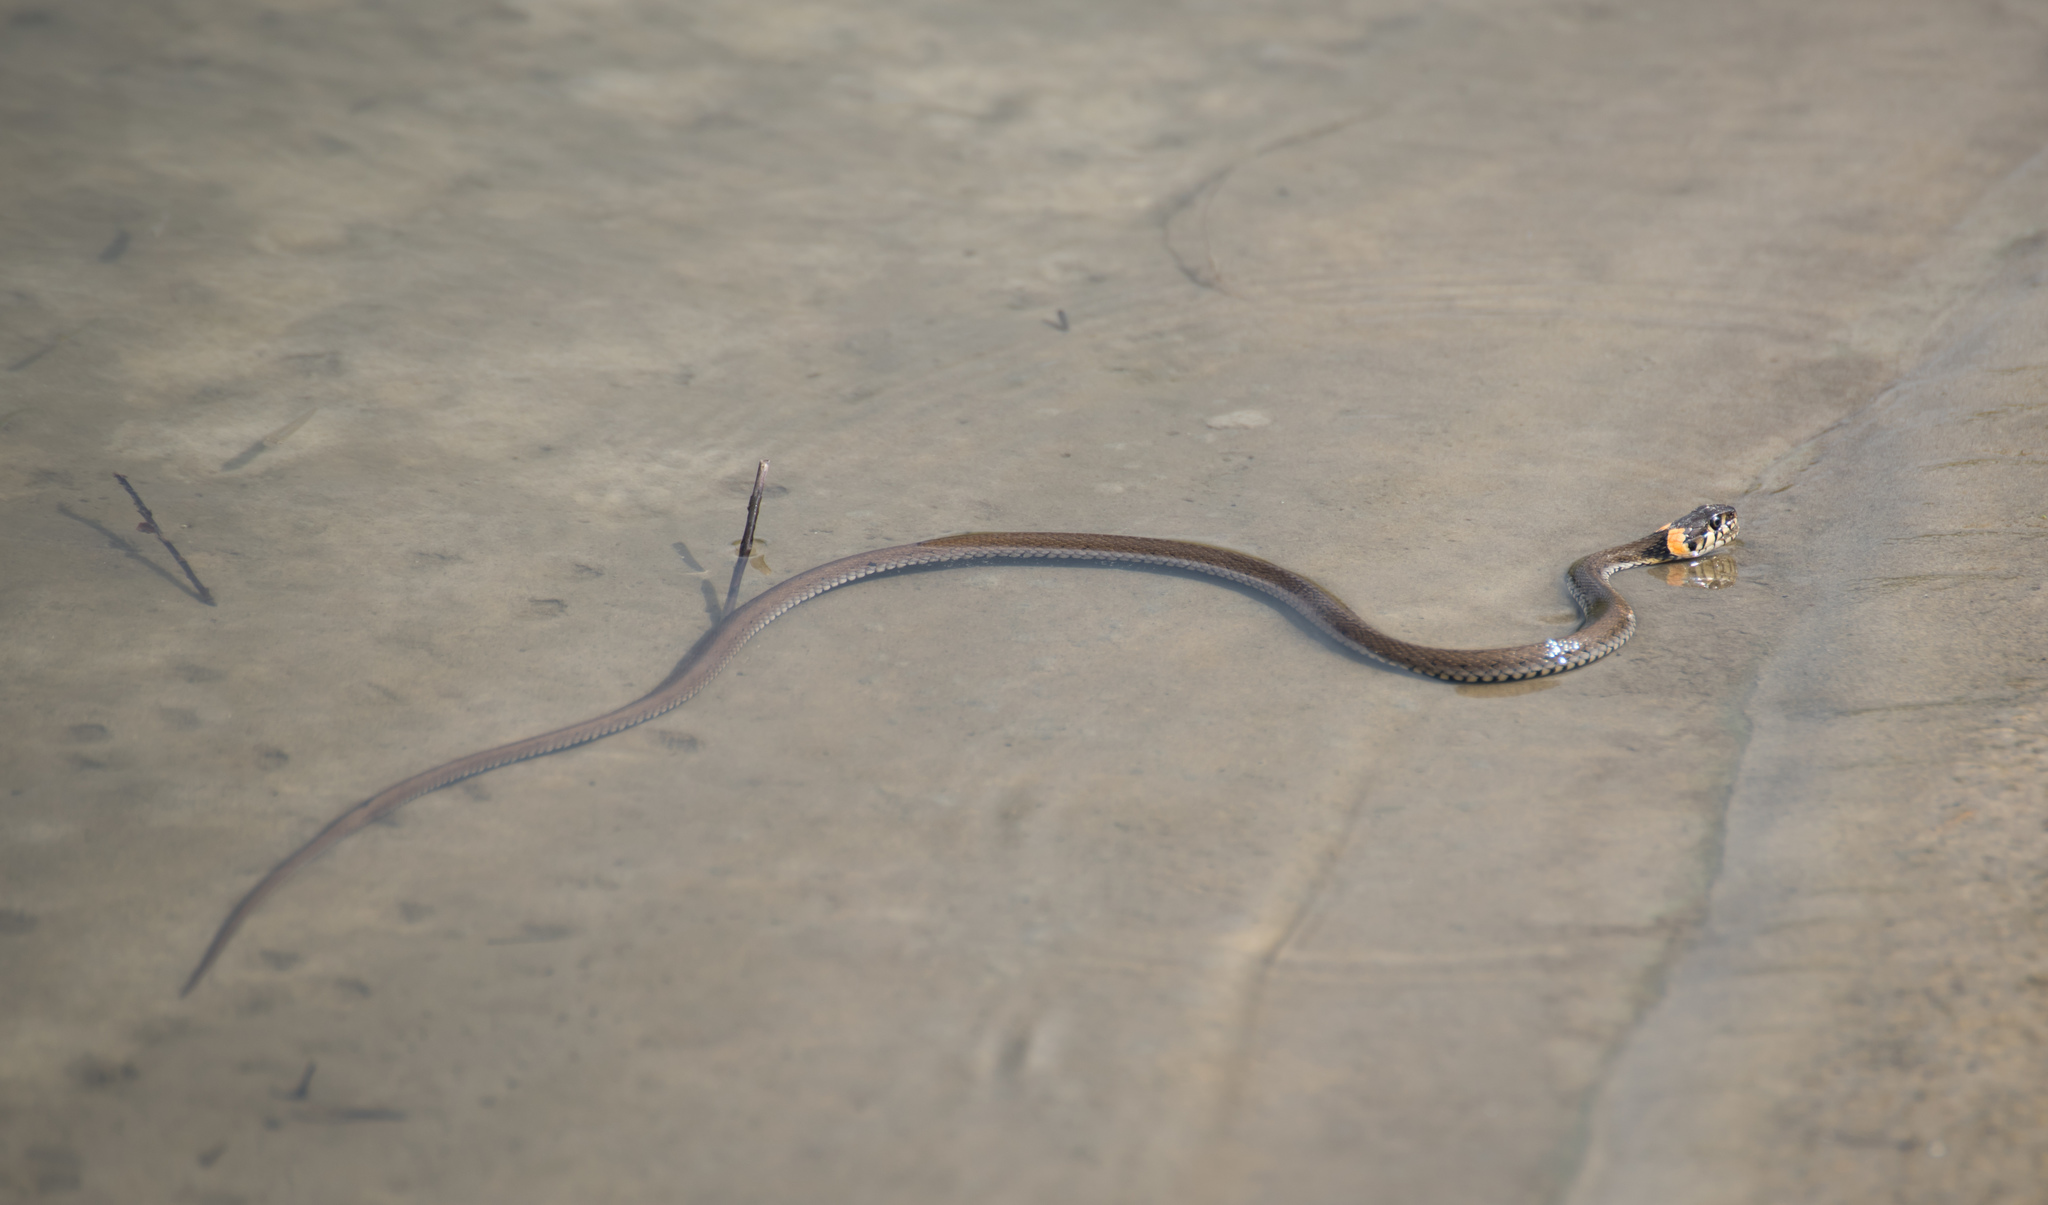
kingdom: Animalia
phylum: Chordata
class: Squamata
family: Colubridae
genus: Natrix
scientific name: Natrix natrix
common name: Grass snake
